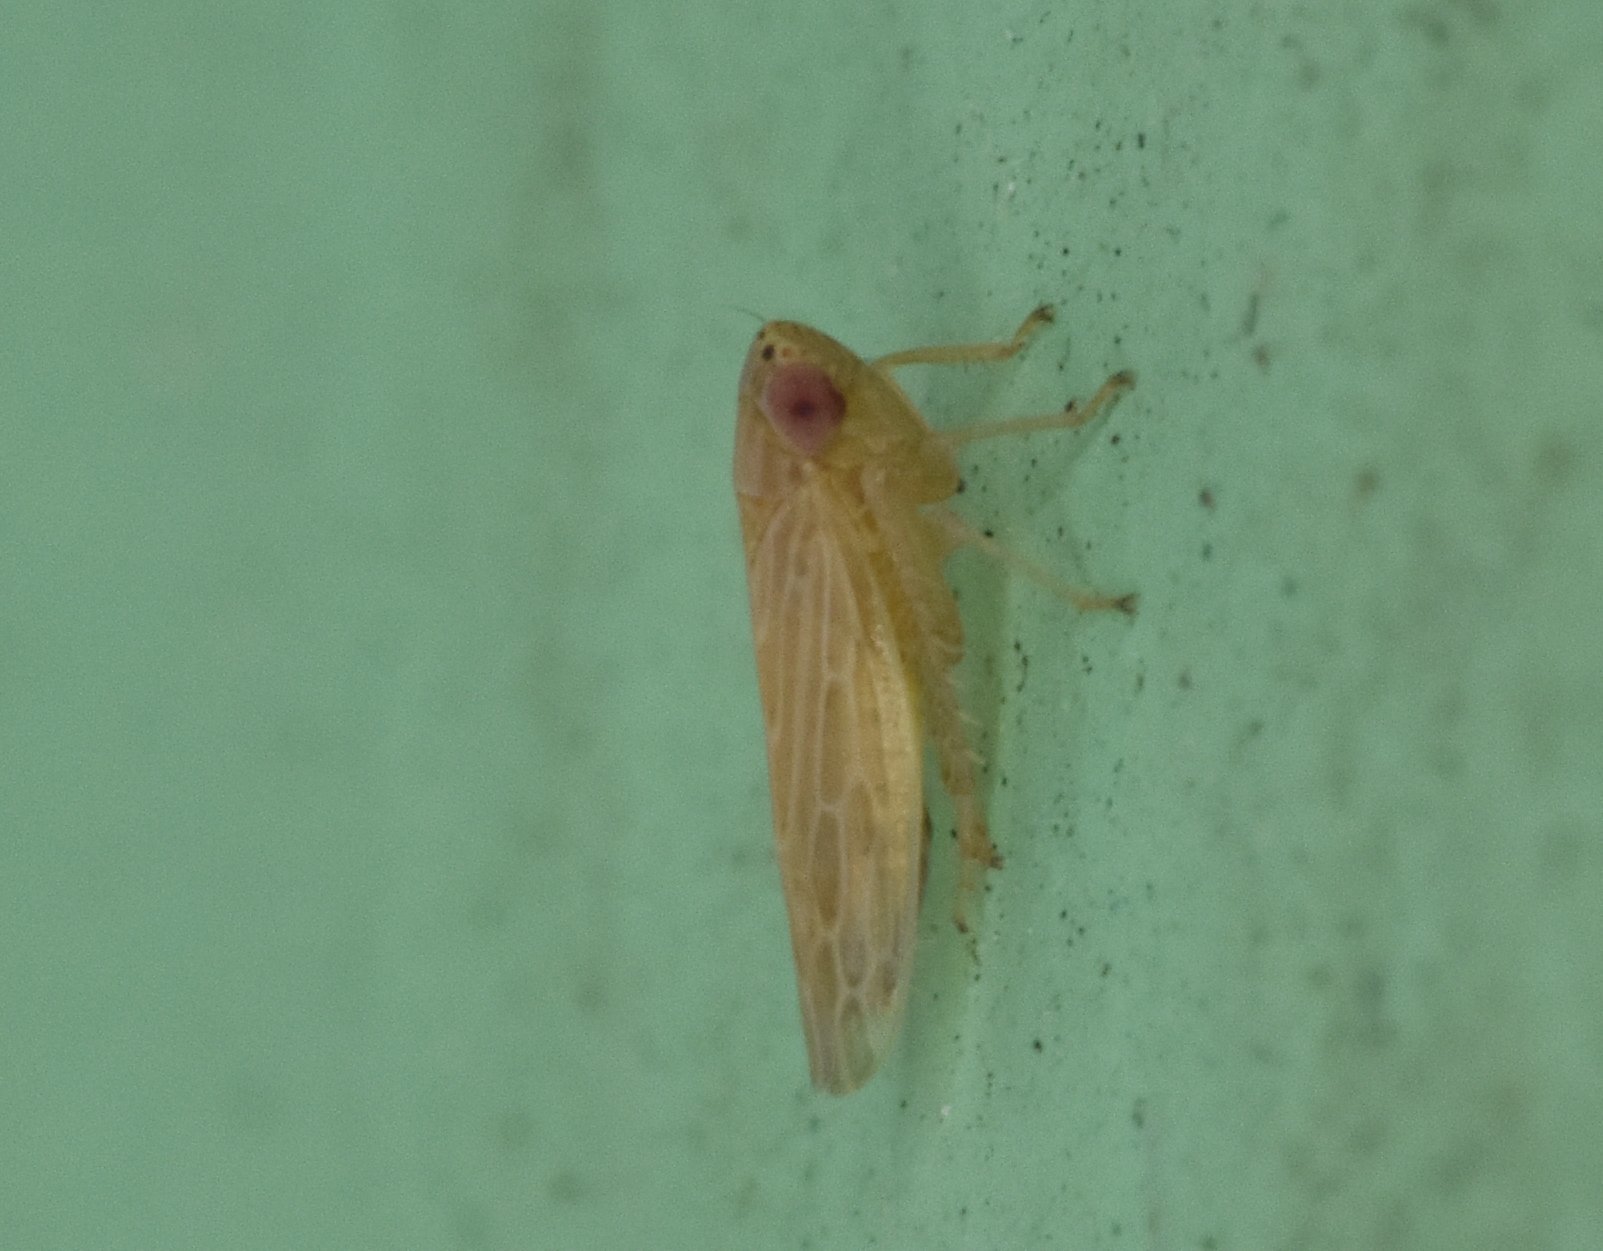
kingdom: Animalia
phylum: Arthropoda
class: Insecta
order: Hemiptera
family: Cicadellidae
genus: Graminella
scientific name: Graminella sonora
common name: Lesser lawn leafhopper
